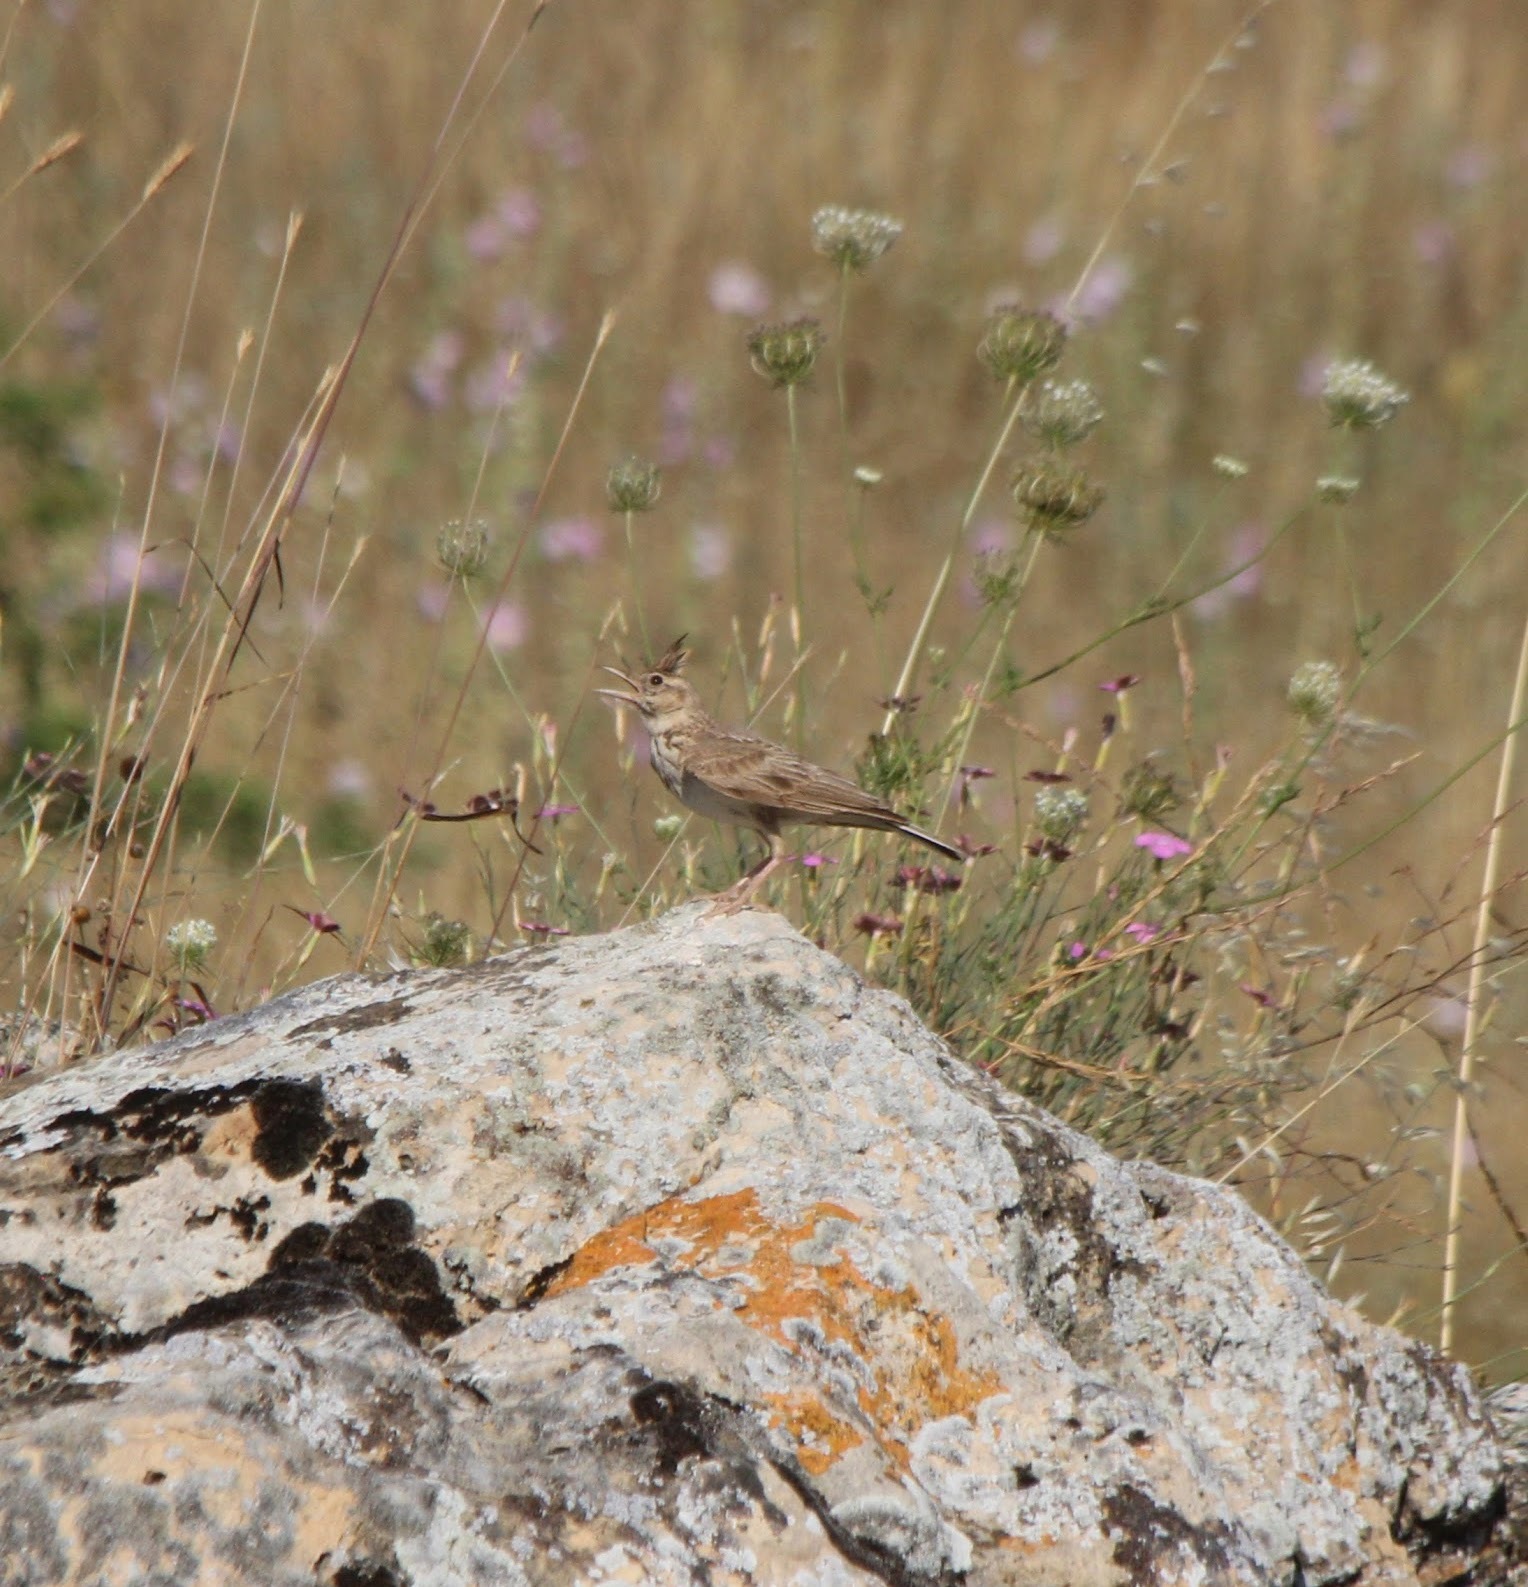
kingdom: Animalia
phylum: Chordata
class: Aves
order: Passeriformes
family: Alaudidae
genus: Galerida
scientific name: Galerida cristata
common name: Crested lark
